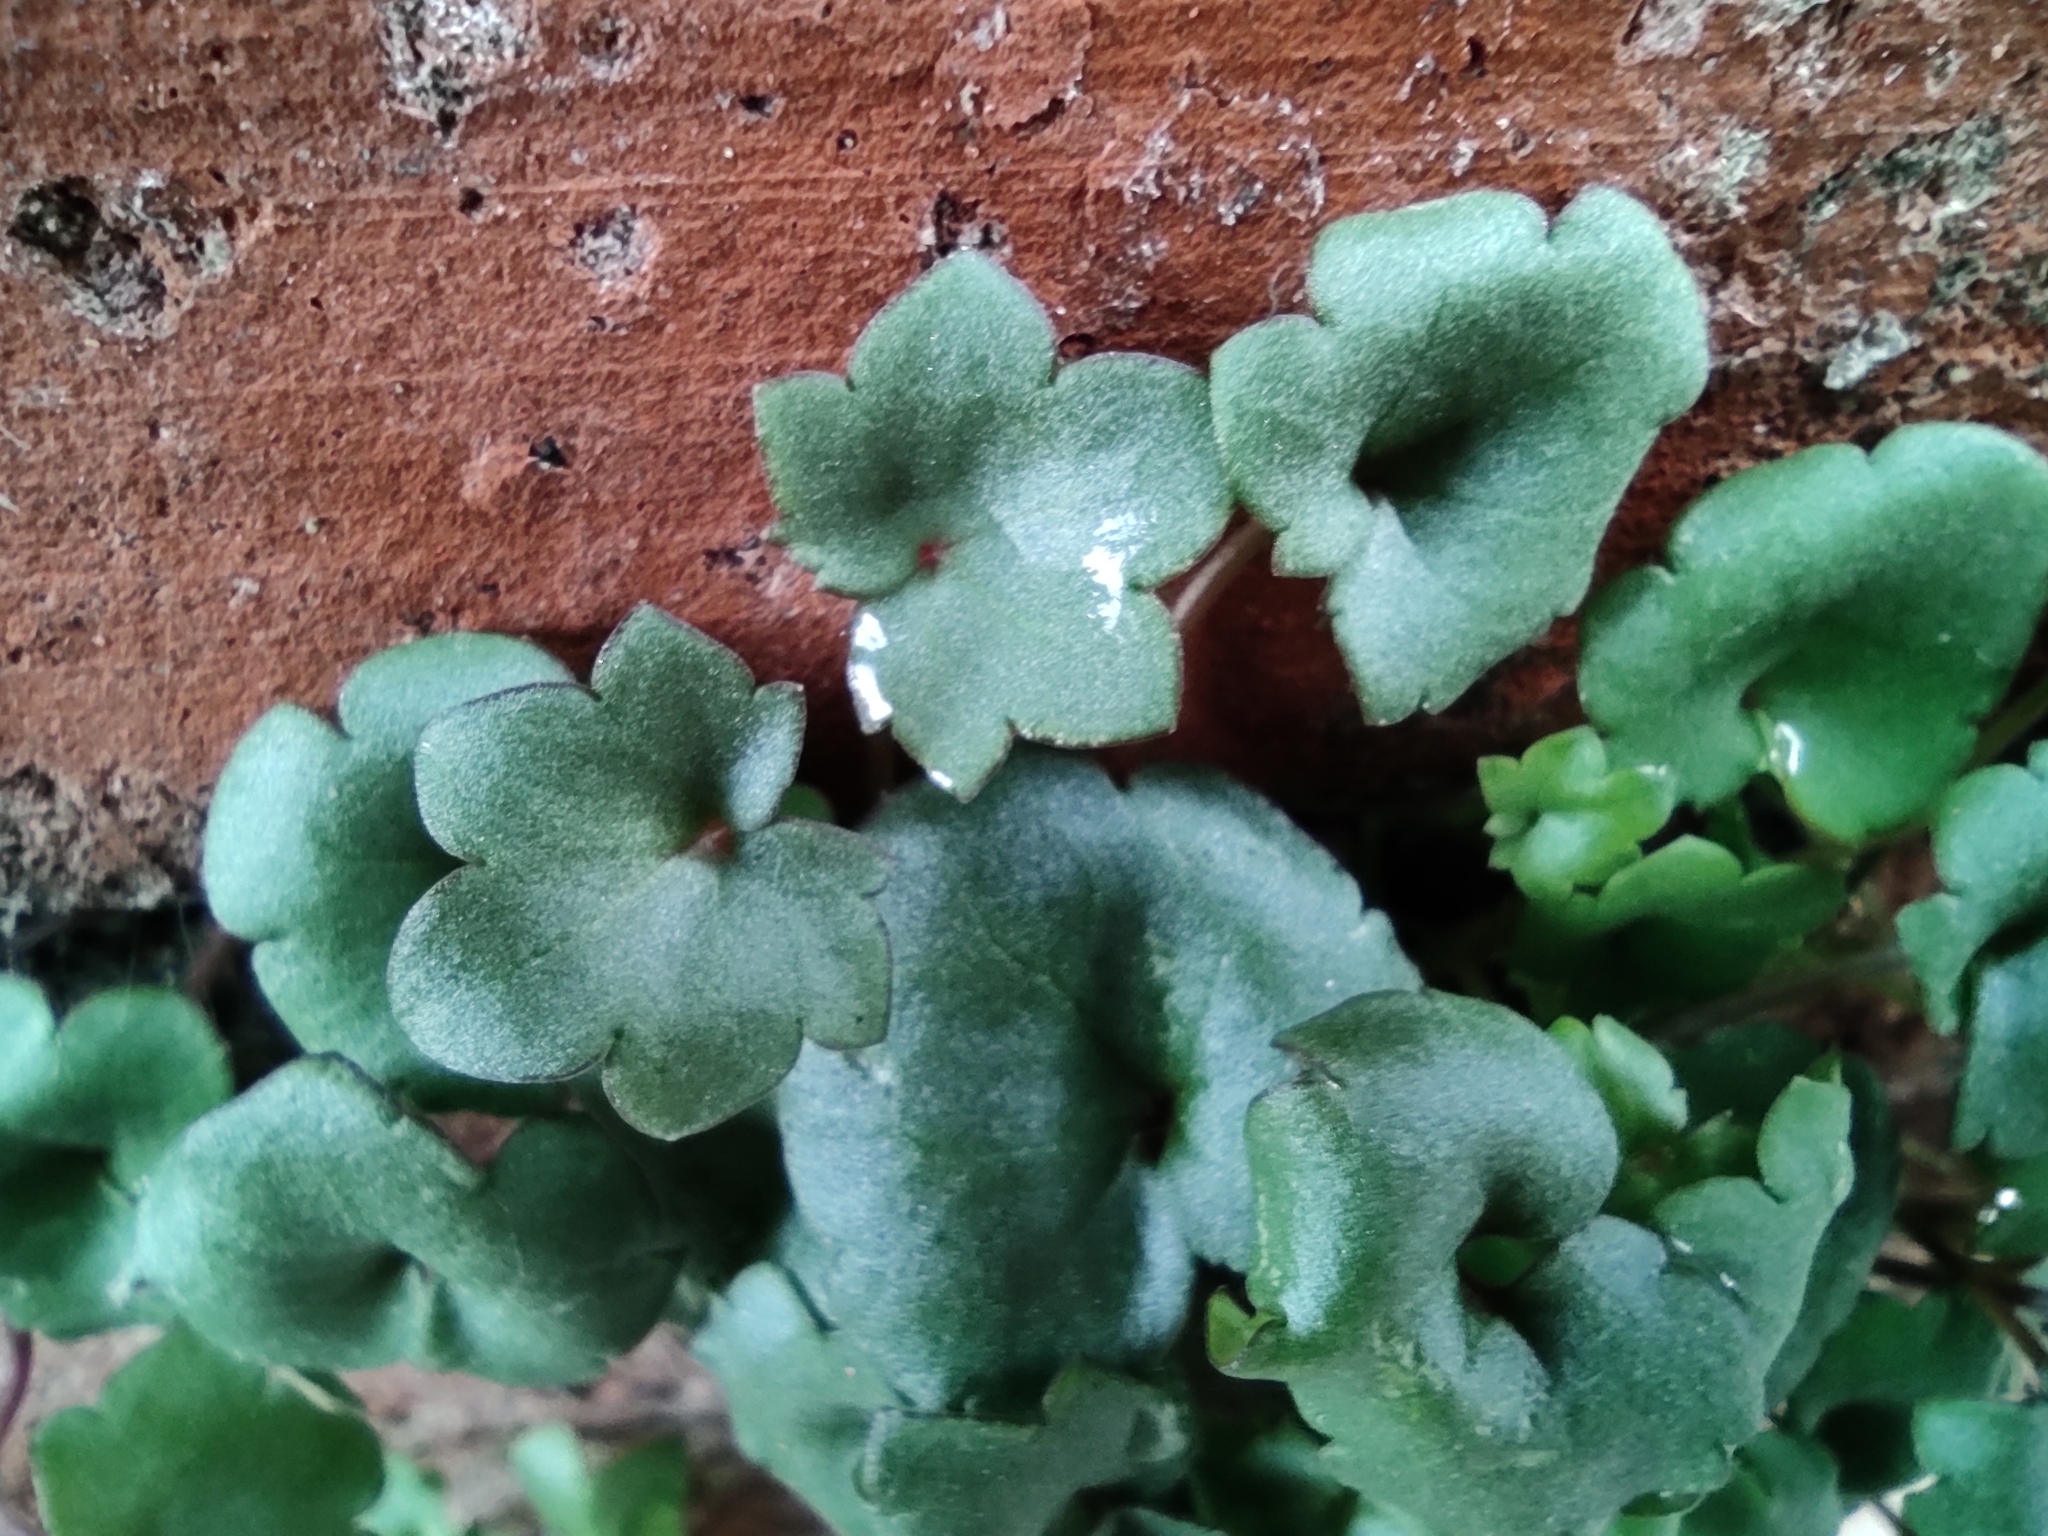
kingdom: Plantae
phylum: Tracheophyta
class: Magnoliopsida
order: Lamiales
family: Plantaginaceae
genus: Cymbalaria
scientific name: Cymbalaria muralis
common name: Ivy-leaved toadflax
